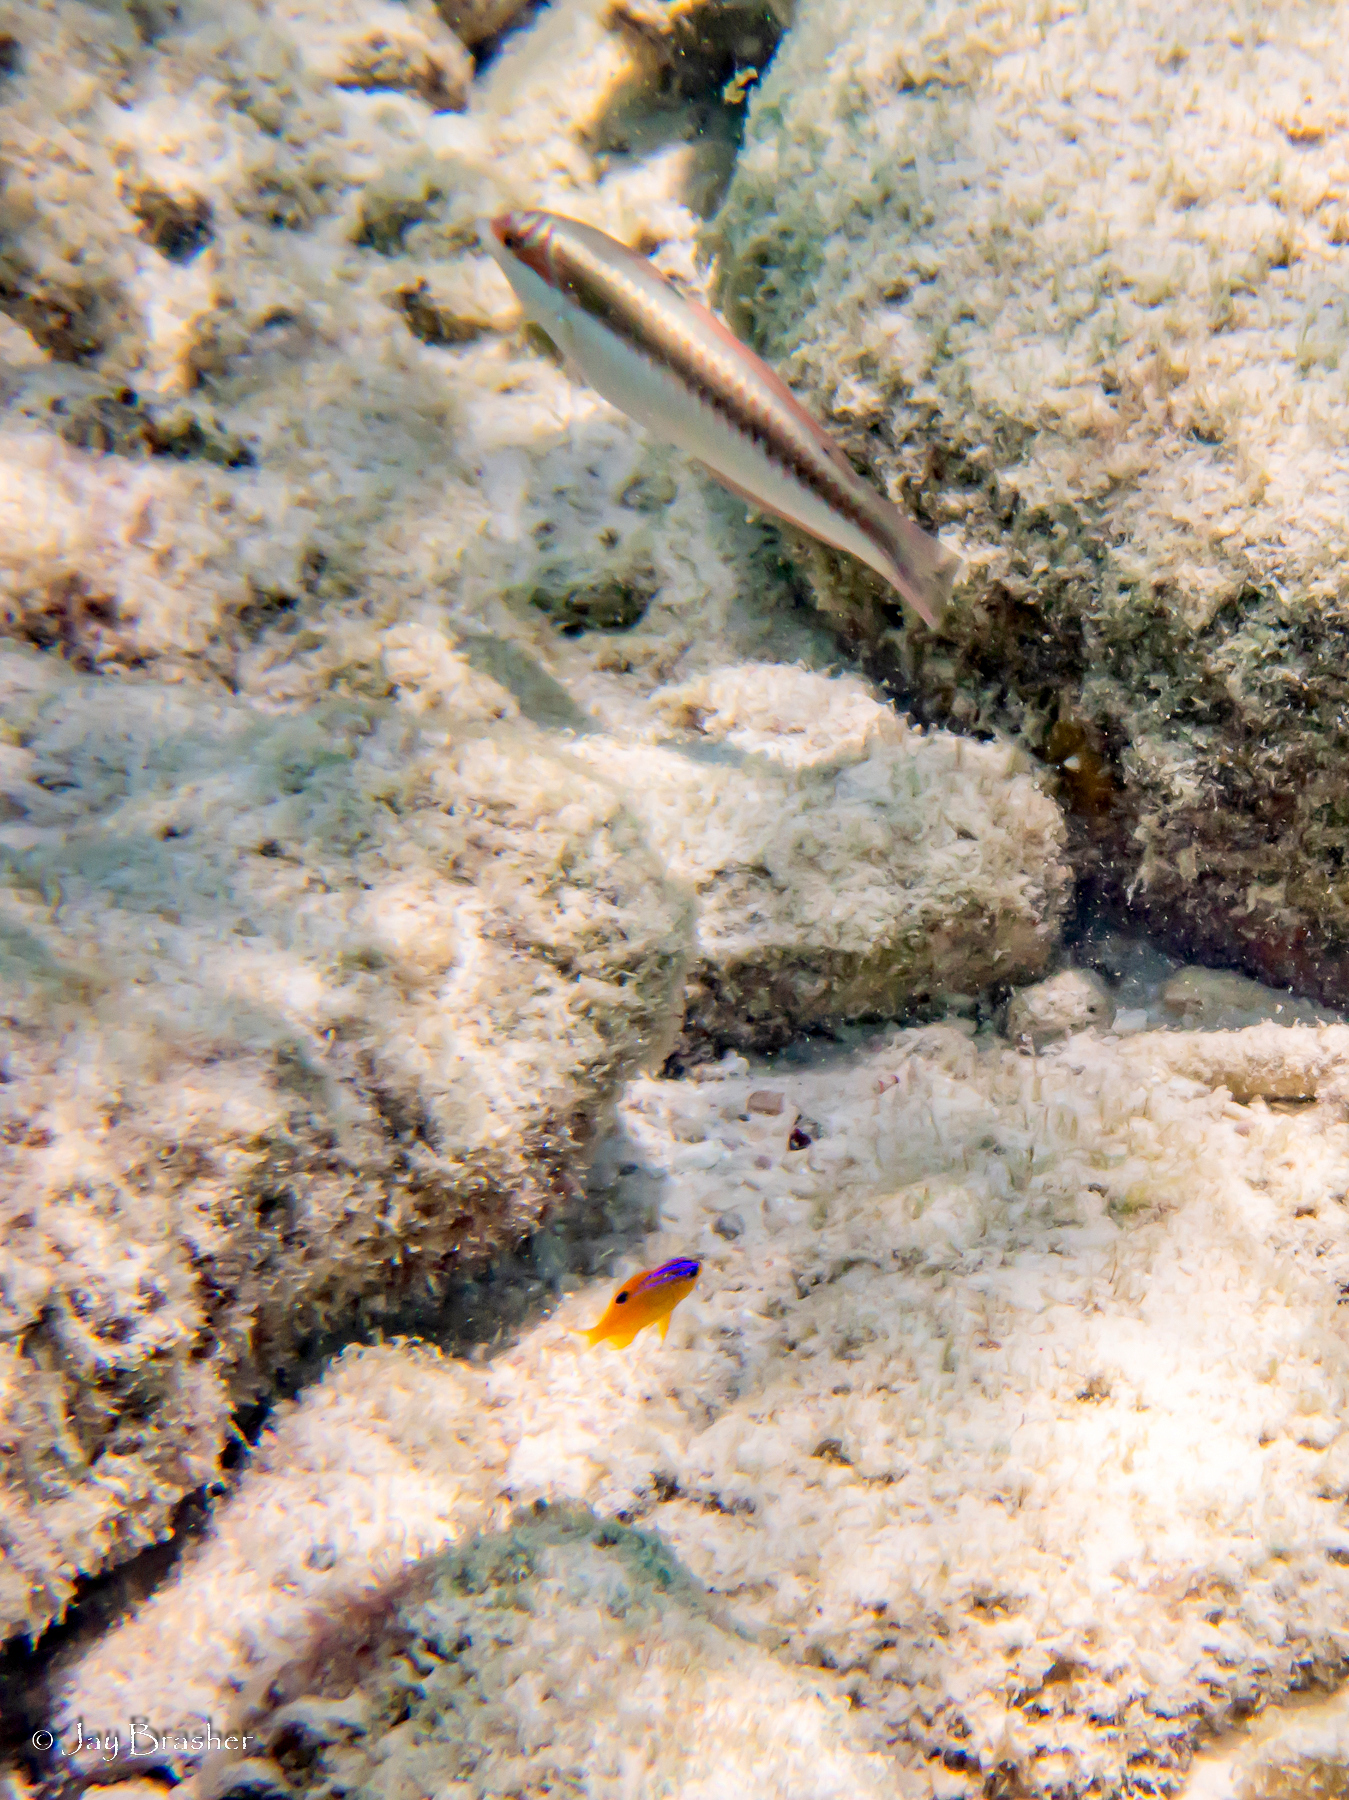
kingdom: Animalia
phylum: Chordata
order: Perciformes
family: Labridae
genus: Halichoeres
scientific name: Halichoeres maculipinna
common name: Clown wrasse
